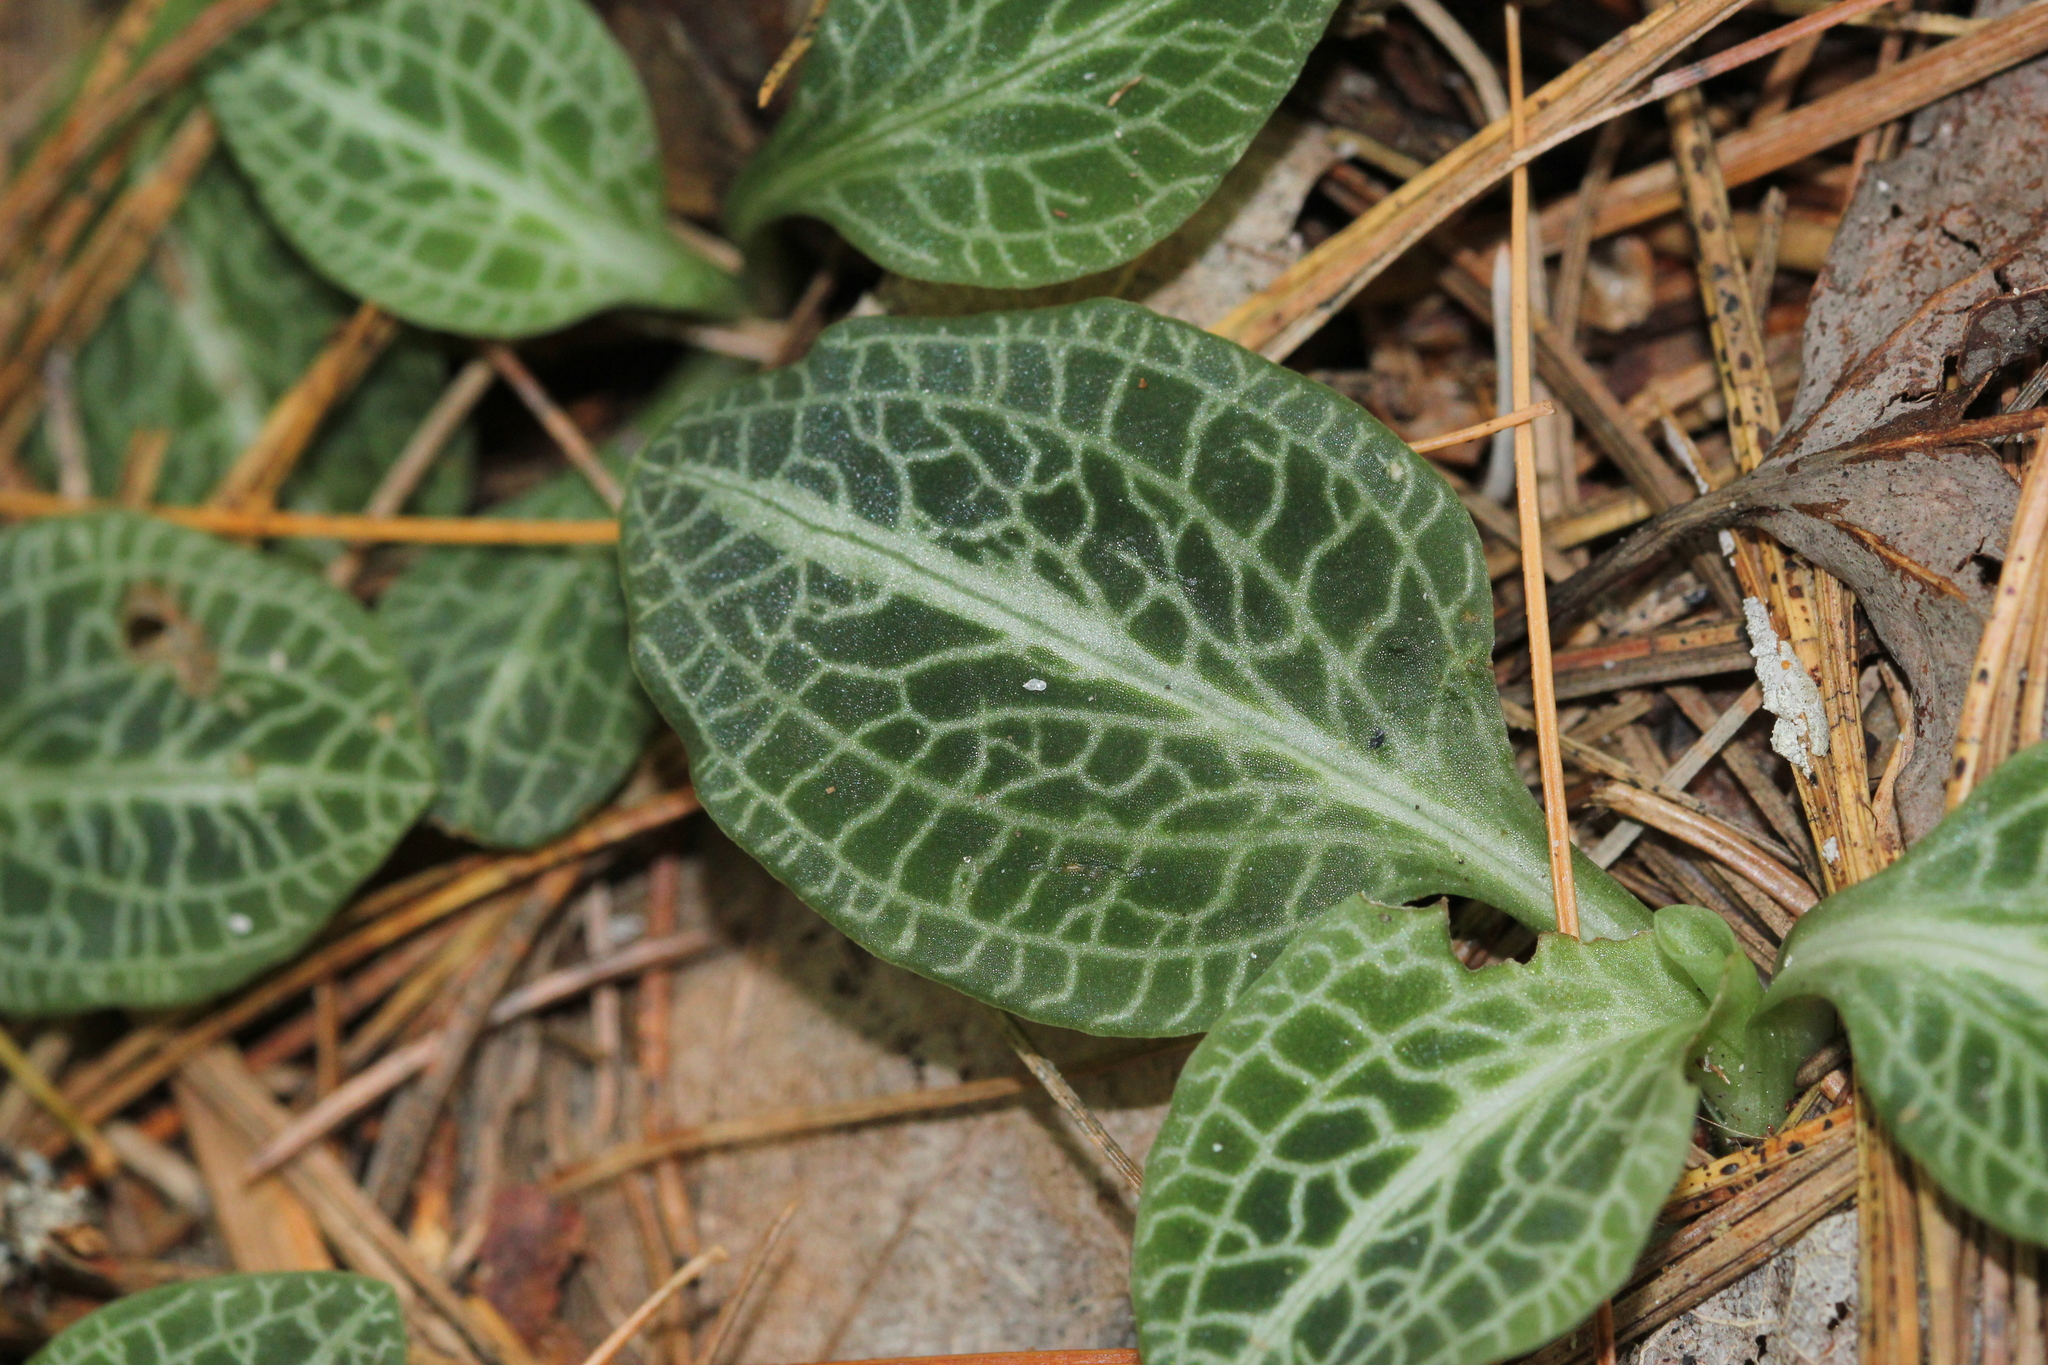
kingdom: Plantae
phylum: Tracheophyta
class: Liliopsida
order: Asparagales
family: Orchidaceae
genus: Goodyera
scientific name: Goodyera pubescens
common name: Downy rattlesnake-plantain
